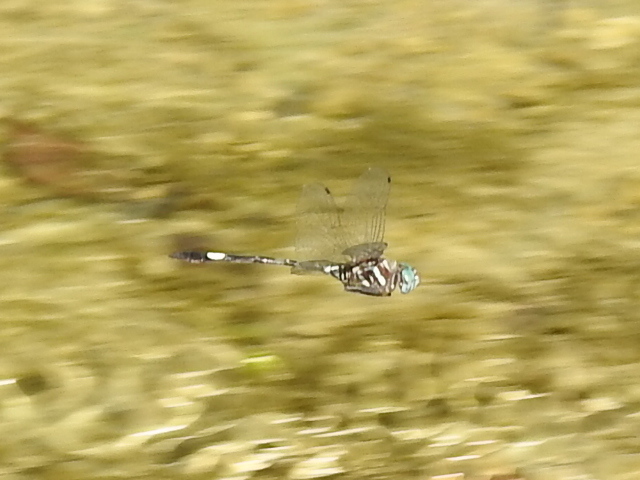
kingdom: Animalia
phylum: Arthropoda
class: Insecta
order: Odonata
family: Libellulidae
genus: Brechmorhoga
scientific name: Brechmorhoga mendax
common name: Pale-faced clubskimmer
